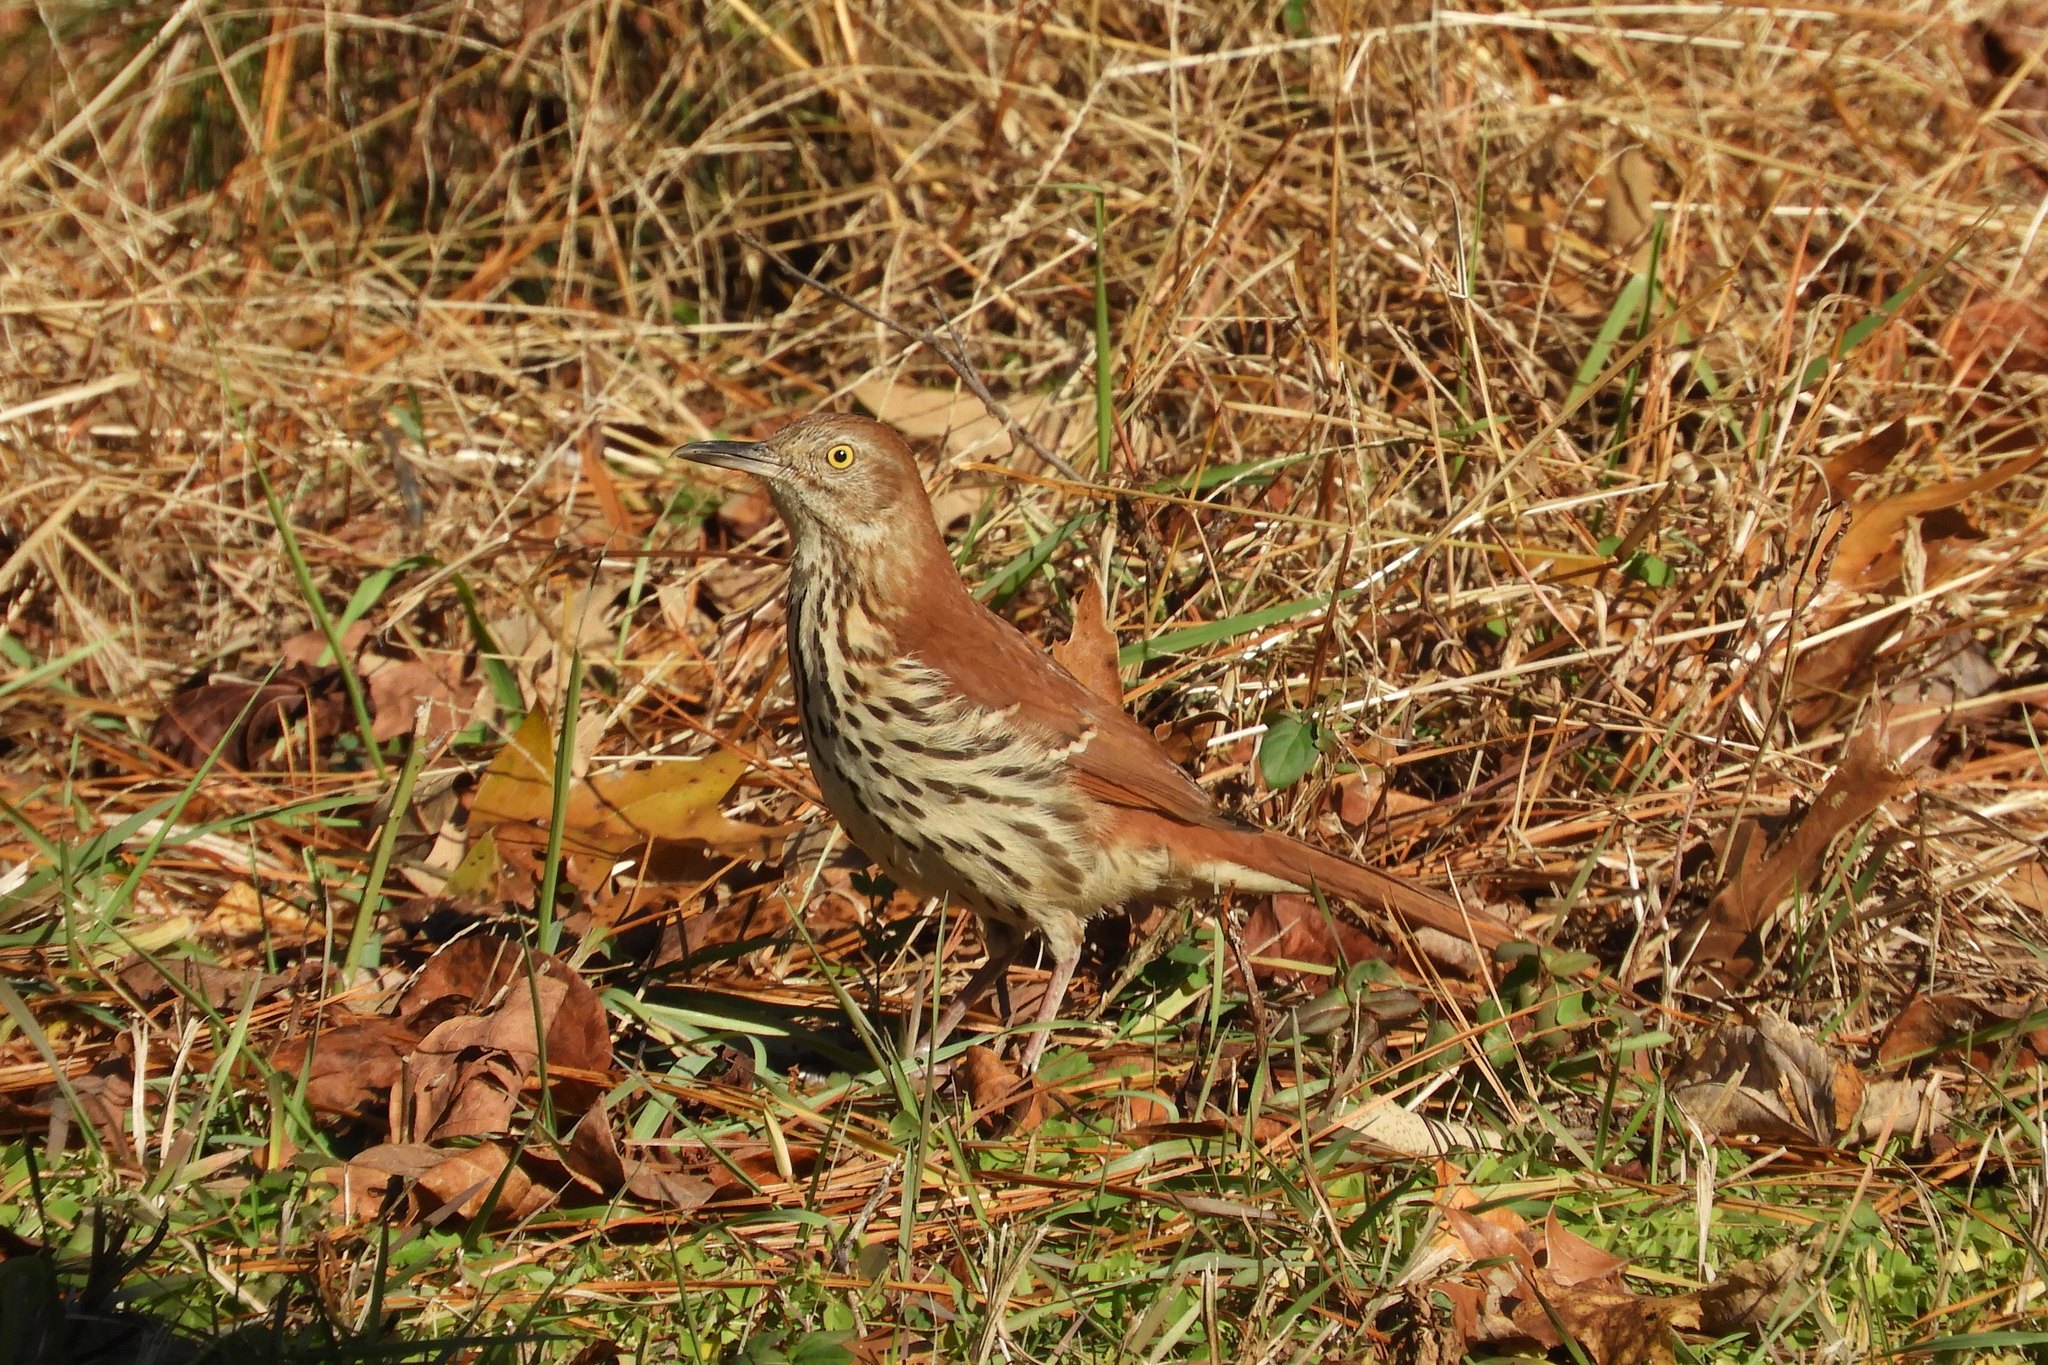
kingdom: Animalia
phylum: Chordata
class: Aves
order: Passeriformes
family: Mimidae
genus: Toxostoma
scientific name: Toxostoma rufum
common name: Brown thrasher
